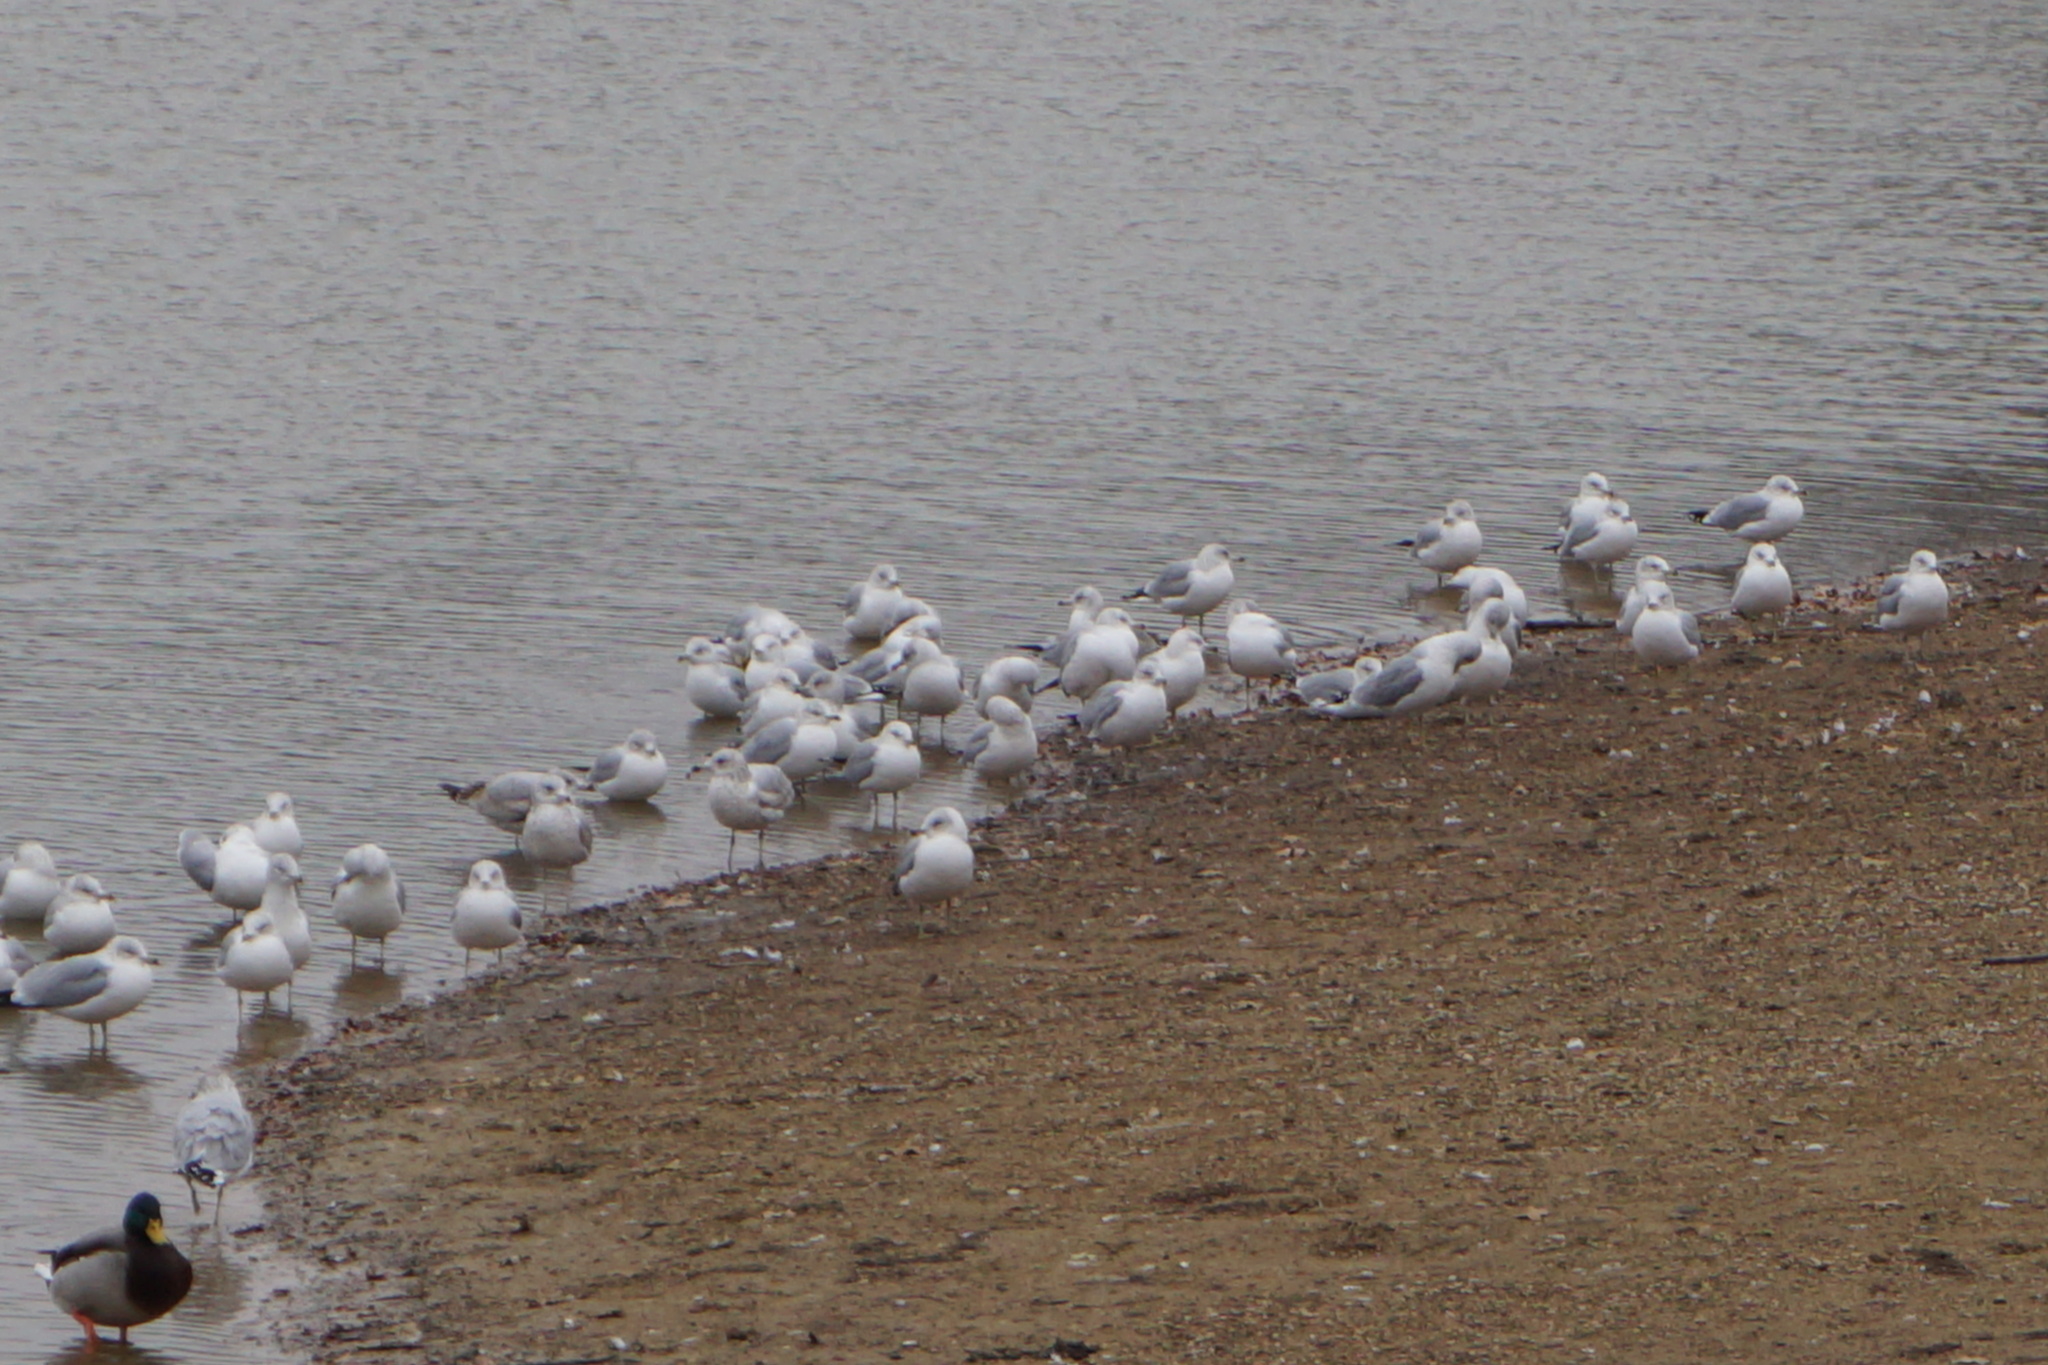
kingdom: Animalia
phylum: Chordata
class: Aves
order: Charadriiformes
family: Laridae
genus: Larus
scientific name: Larus delawarensis
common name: Ring-billed gull
